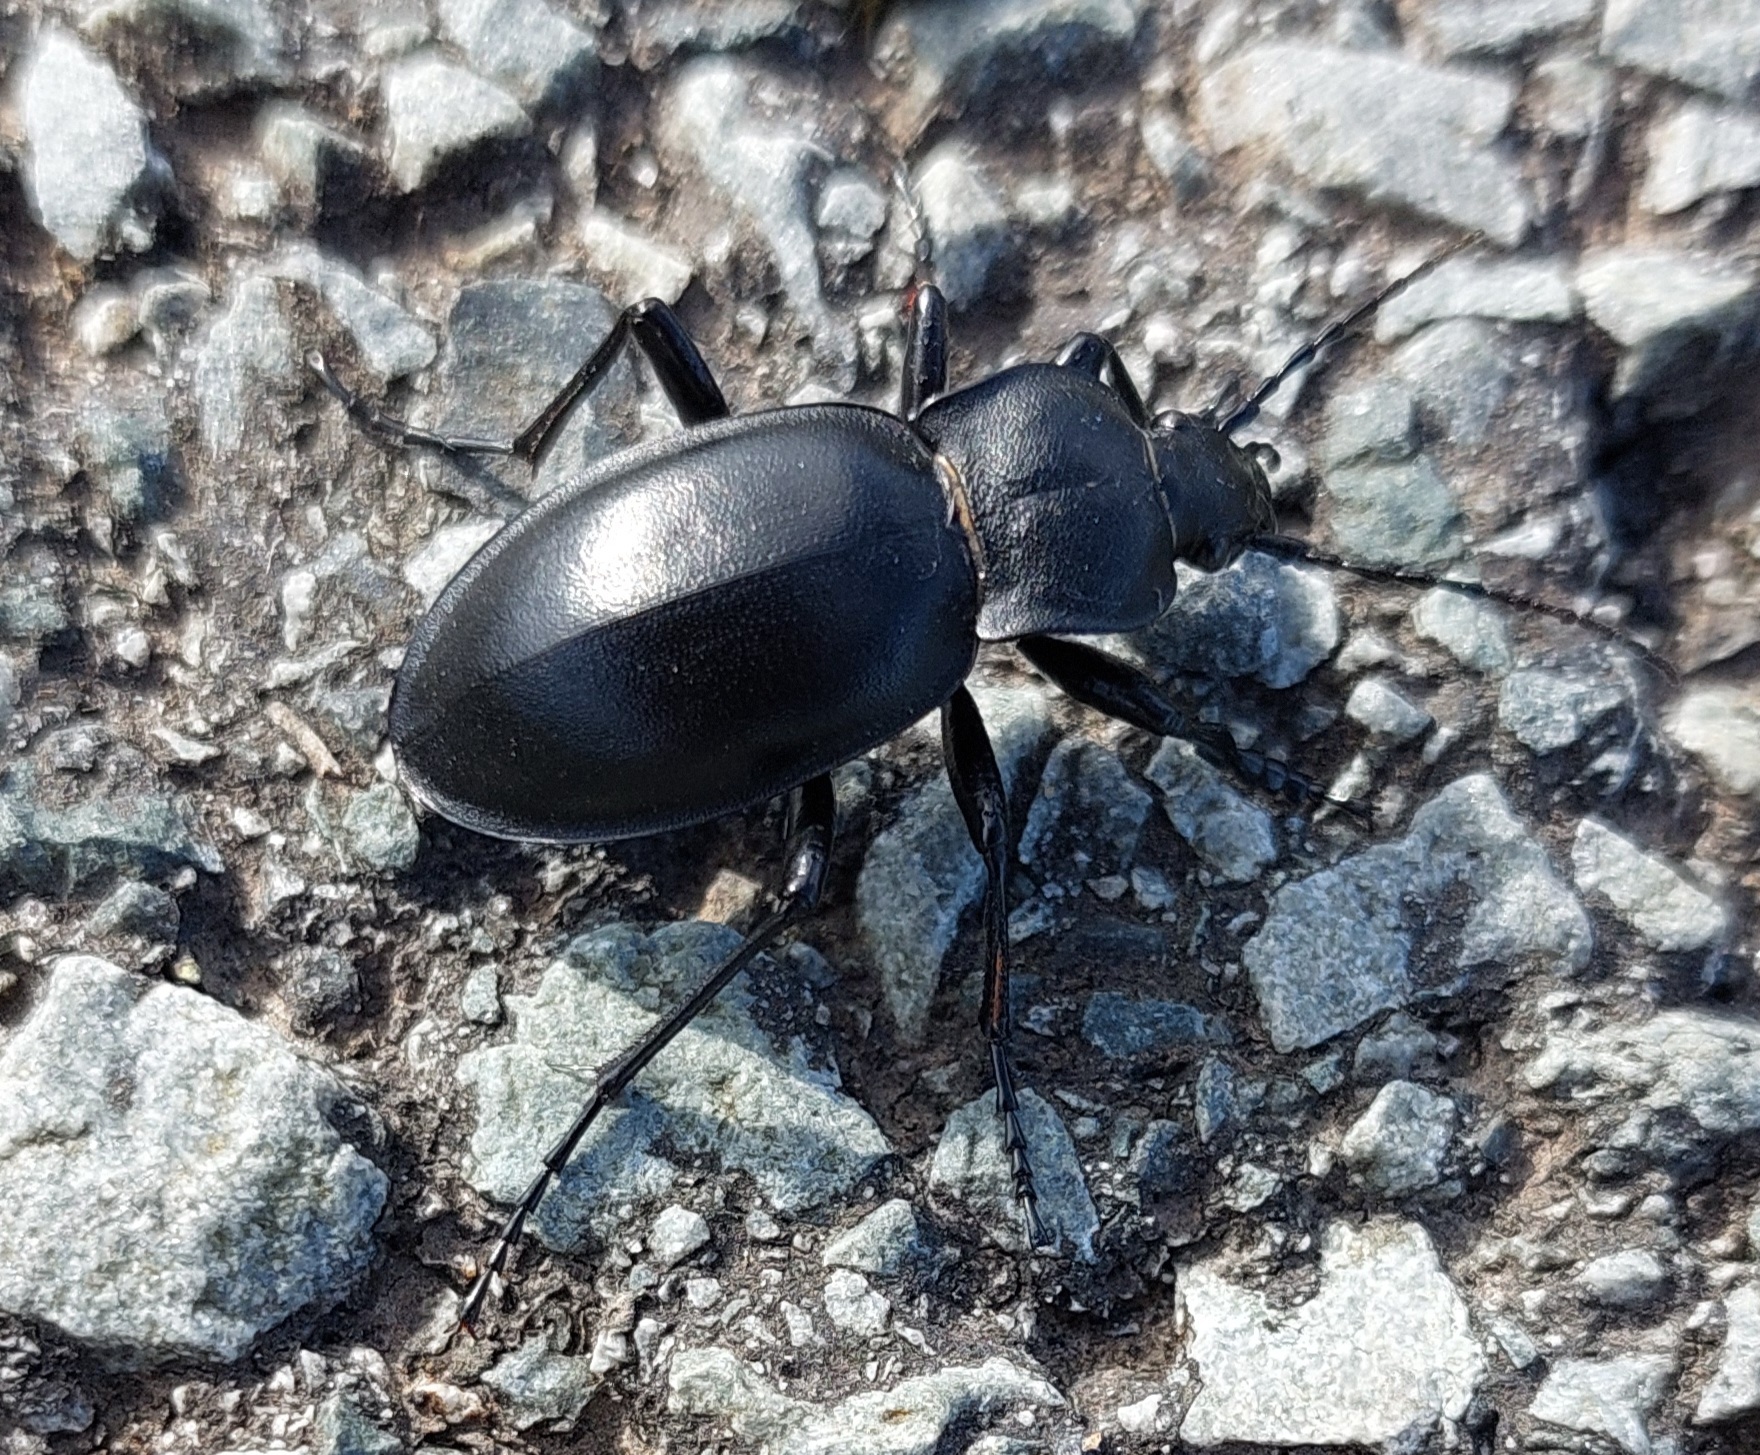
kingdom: Animalia
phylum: Arthropoda
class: Insecta
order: Coleoptera
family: Carabidae
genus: Carabus
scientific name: Carabus glabratus
